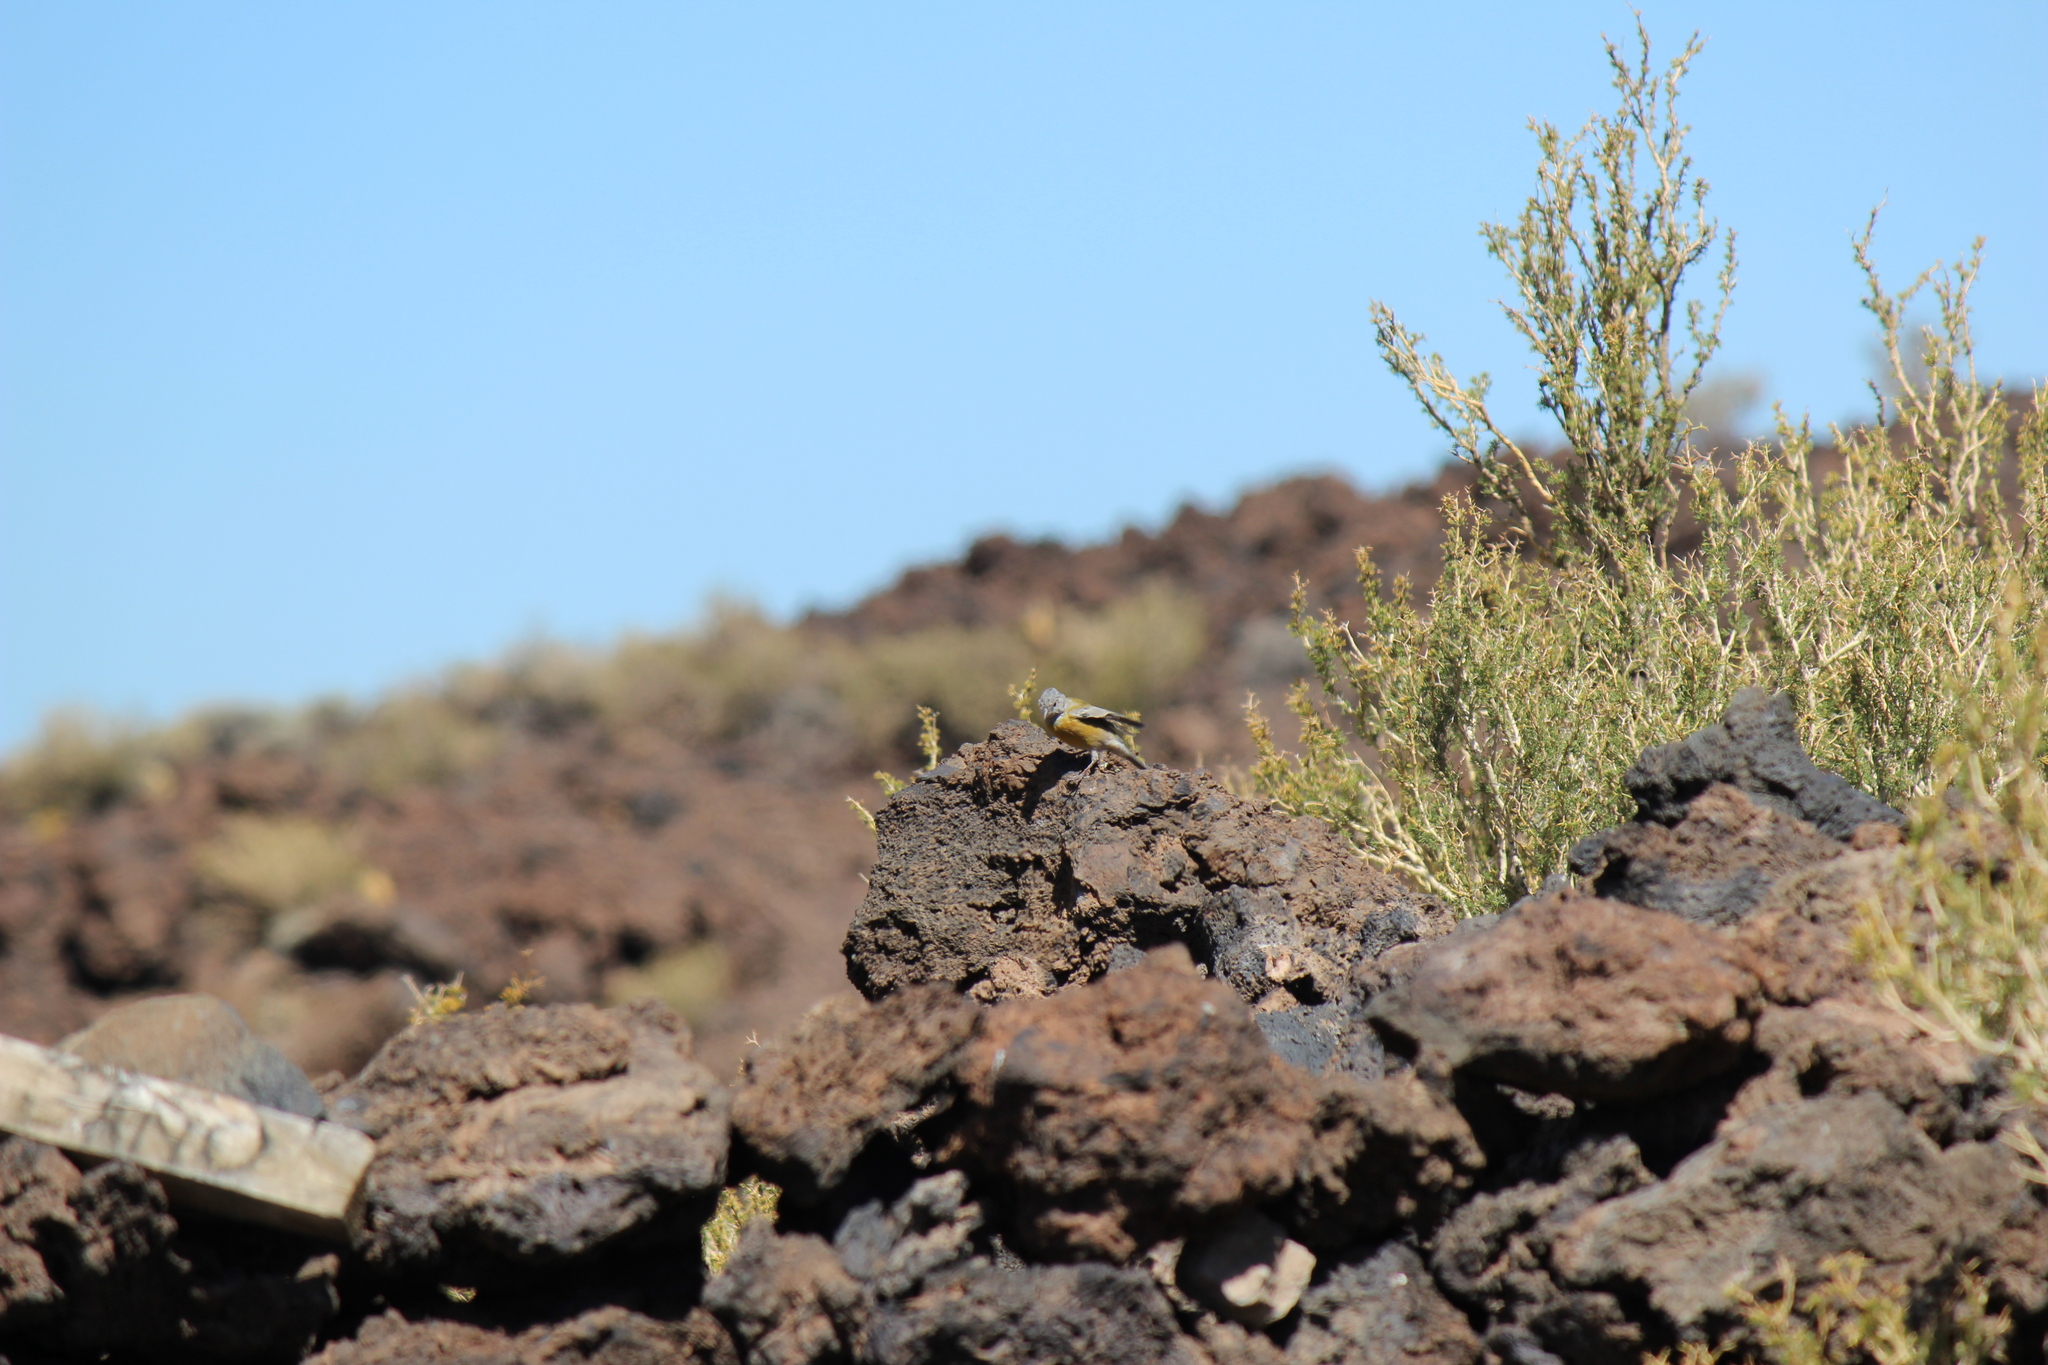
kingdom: Animalia
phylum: Chordata
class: Aves
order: Passeriformes
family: Thraupidae
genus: Phrygilus
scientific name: Phrygilus gayi
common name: Grey-hooded sierra finch
